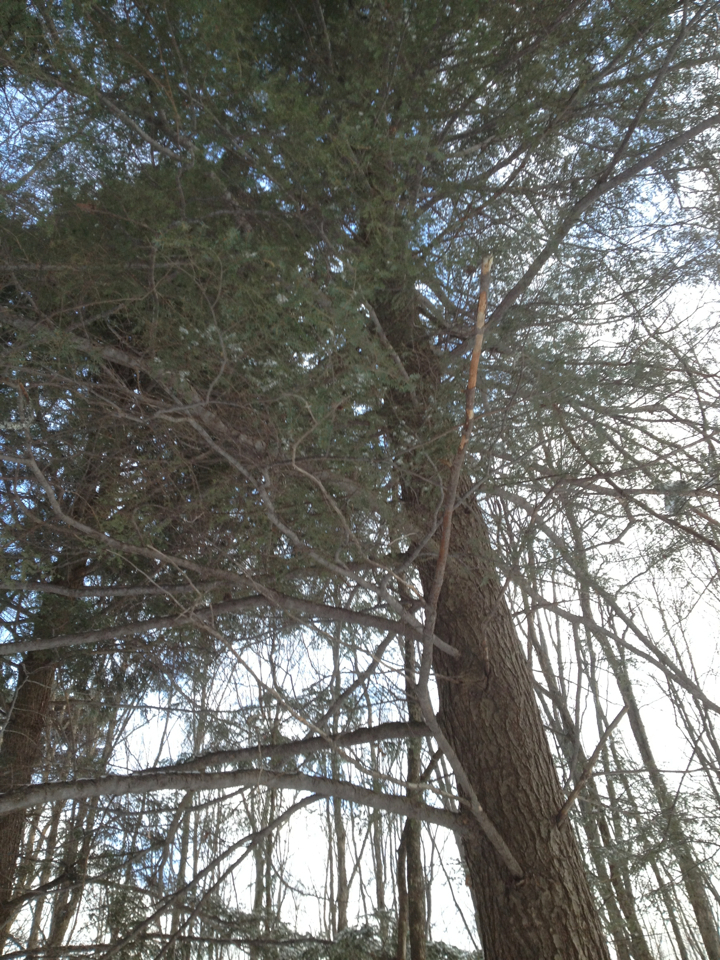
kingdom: Plantae
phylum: Tracheophyta
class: Pinopsida
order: Pinales
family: Pinaceae
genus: Tsuga
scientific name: Tsuga canadensis
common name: Eastern hemlock
